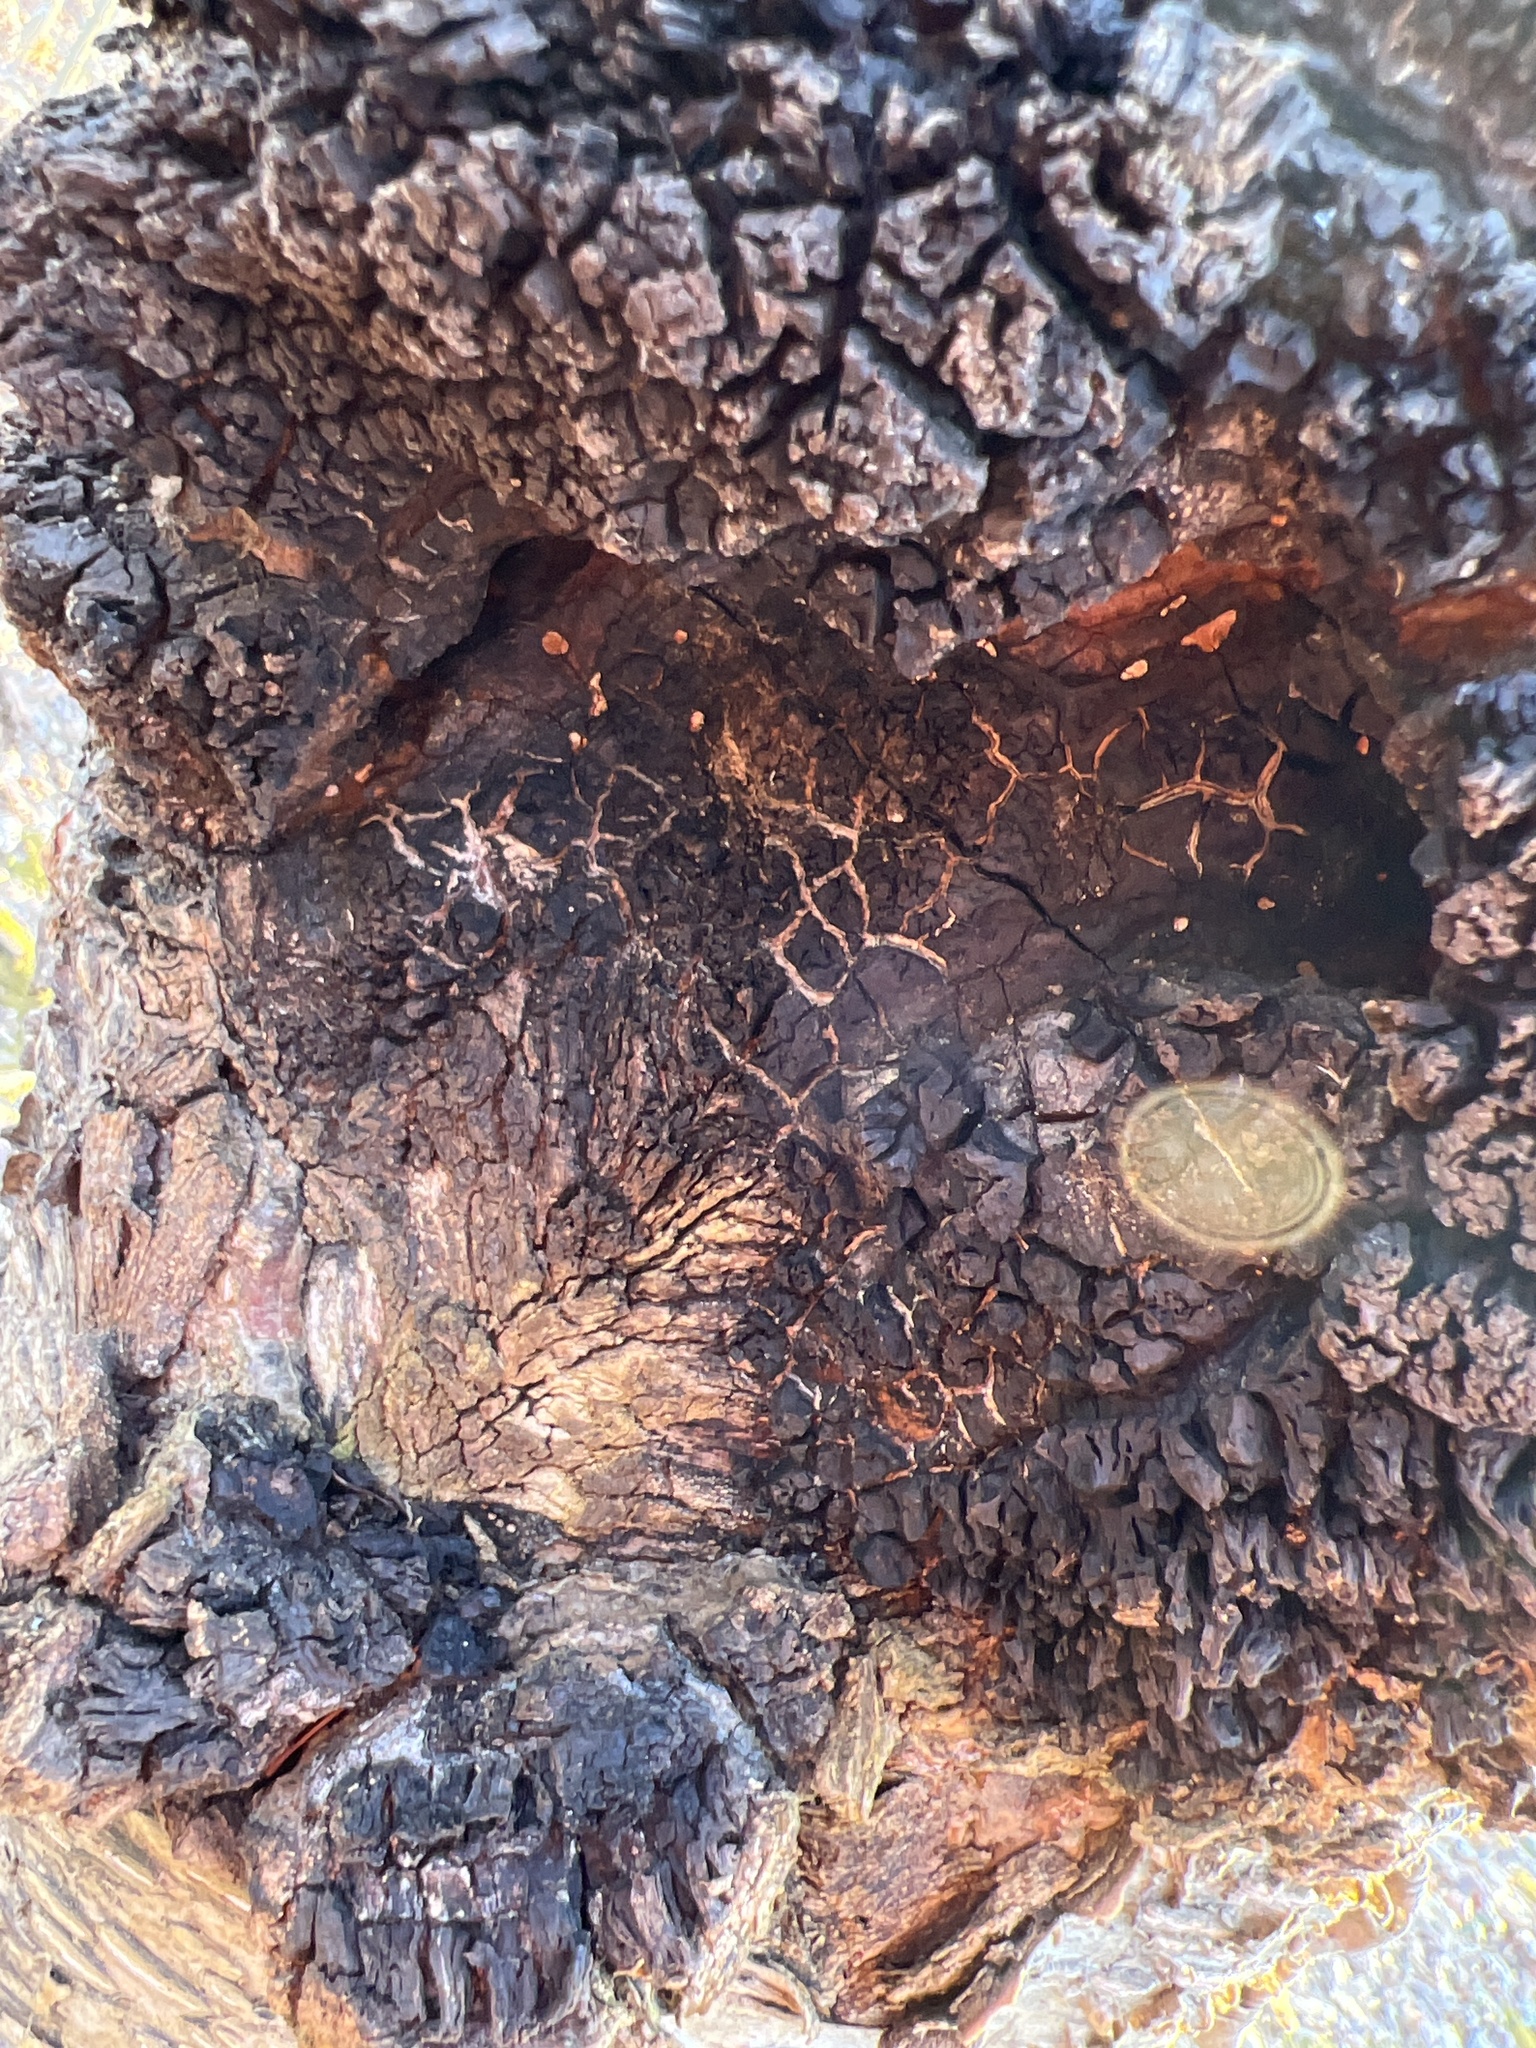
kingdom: Fungi
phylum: Basidiomycota
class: Agaricomycetes
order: Hymenochaetales
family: Hymenochaetaceae
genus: Inonotus
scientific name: Inonotus obliquus
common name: Chaga
